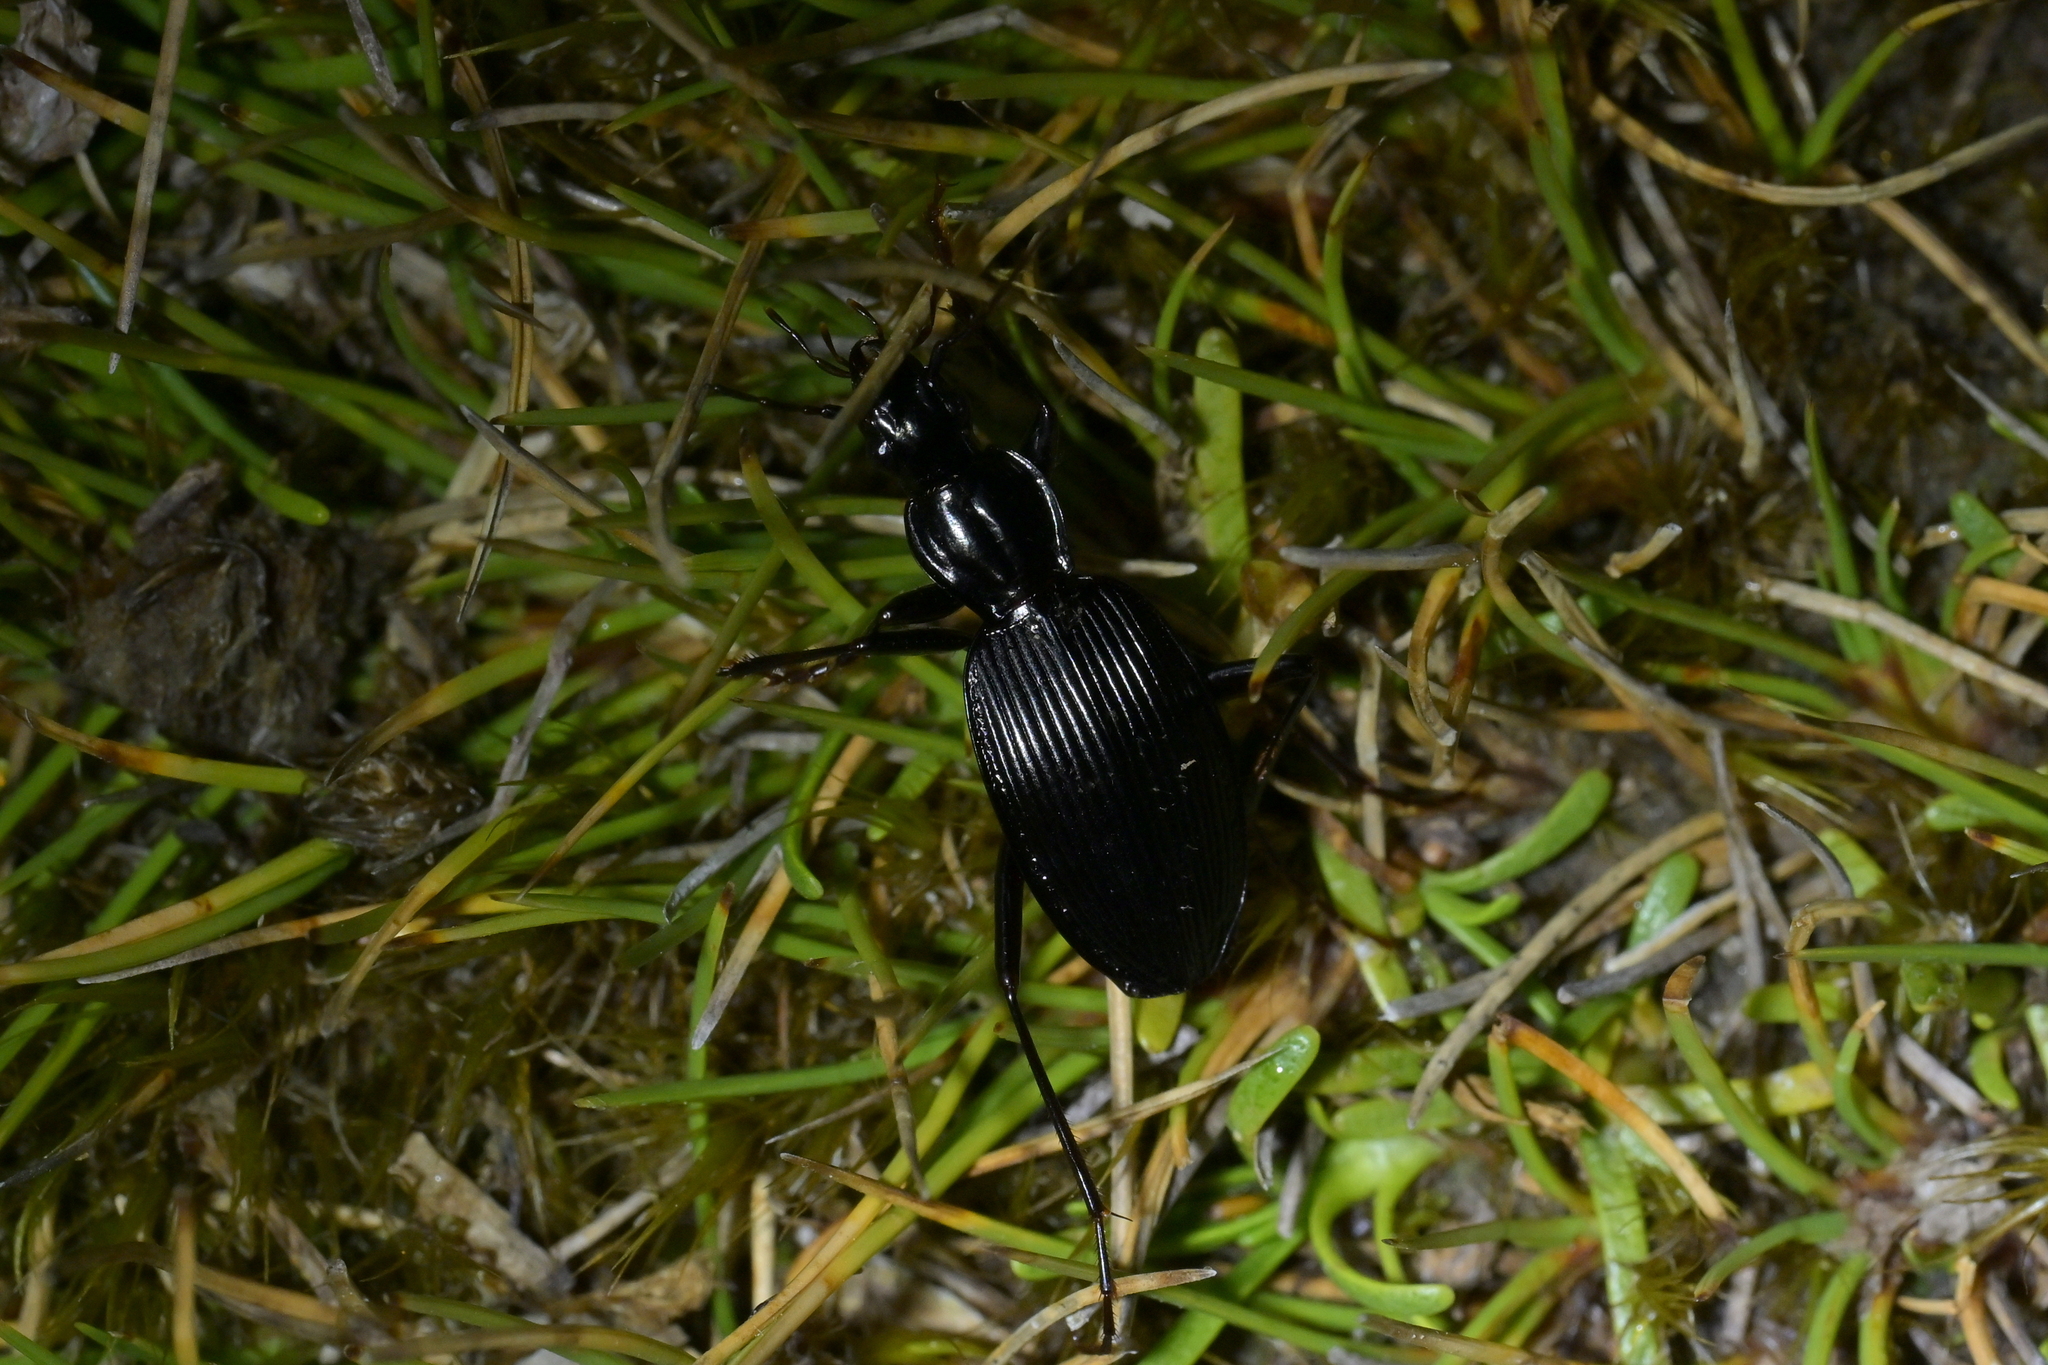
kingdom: Animalia
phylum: Arthropoda
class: Insecta
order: Coleoptera
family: Carabidae
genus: Kiwiplatynus
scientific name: Kiwiplatynus bidens
